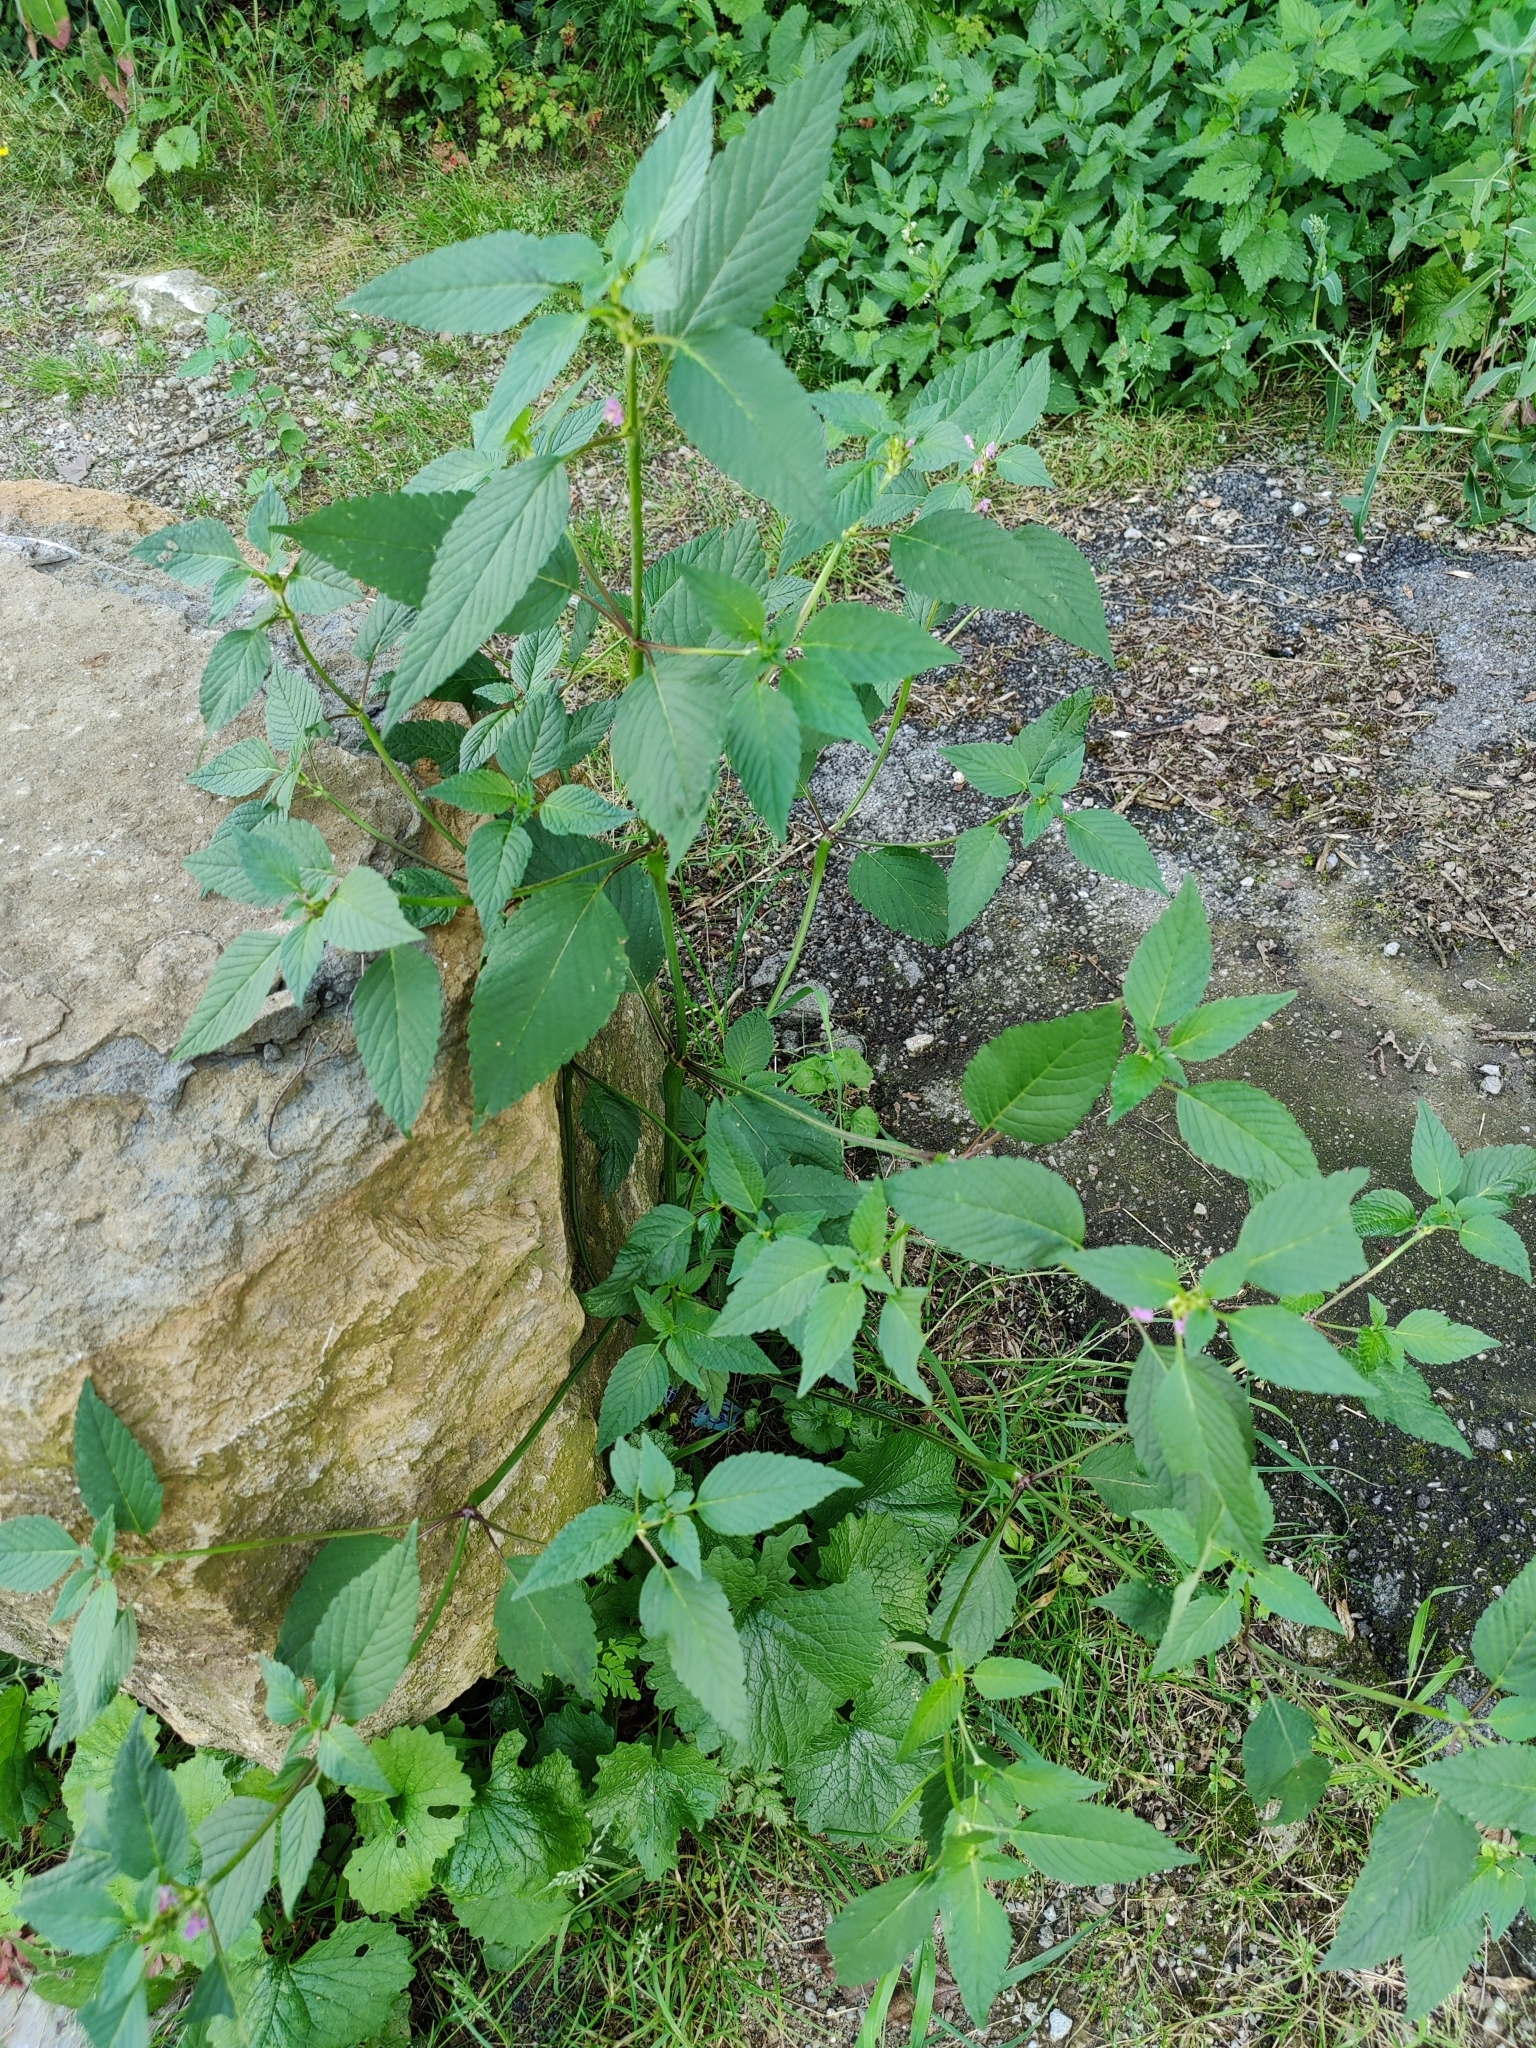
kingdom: Plantae
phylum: Tracheophyta
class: Magnoliopsida
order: Lamiales
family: Lamiaceae
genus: Galeopsis
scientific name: Galeopsis tetrahit
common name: Common hemp-nettle
